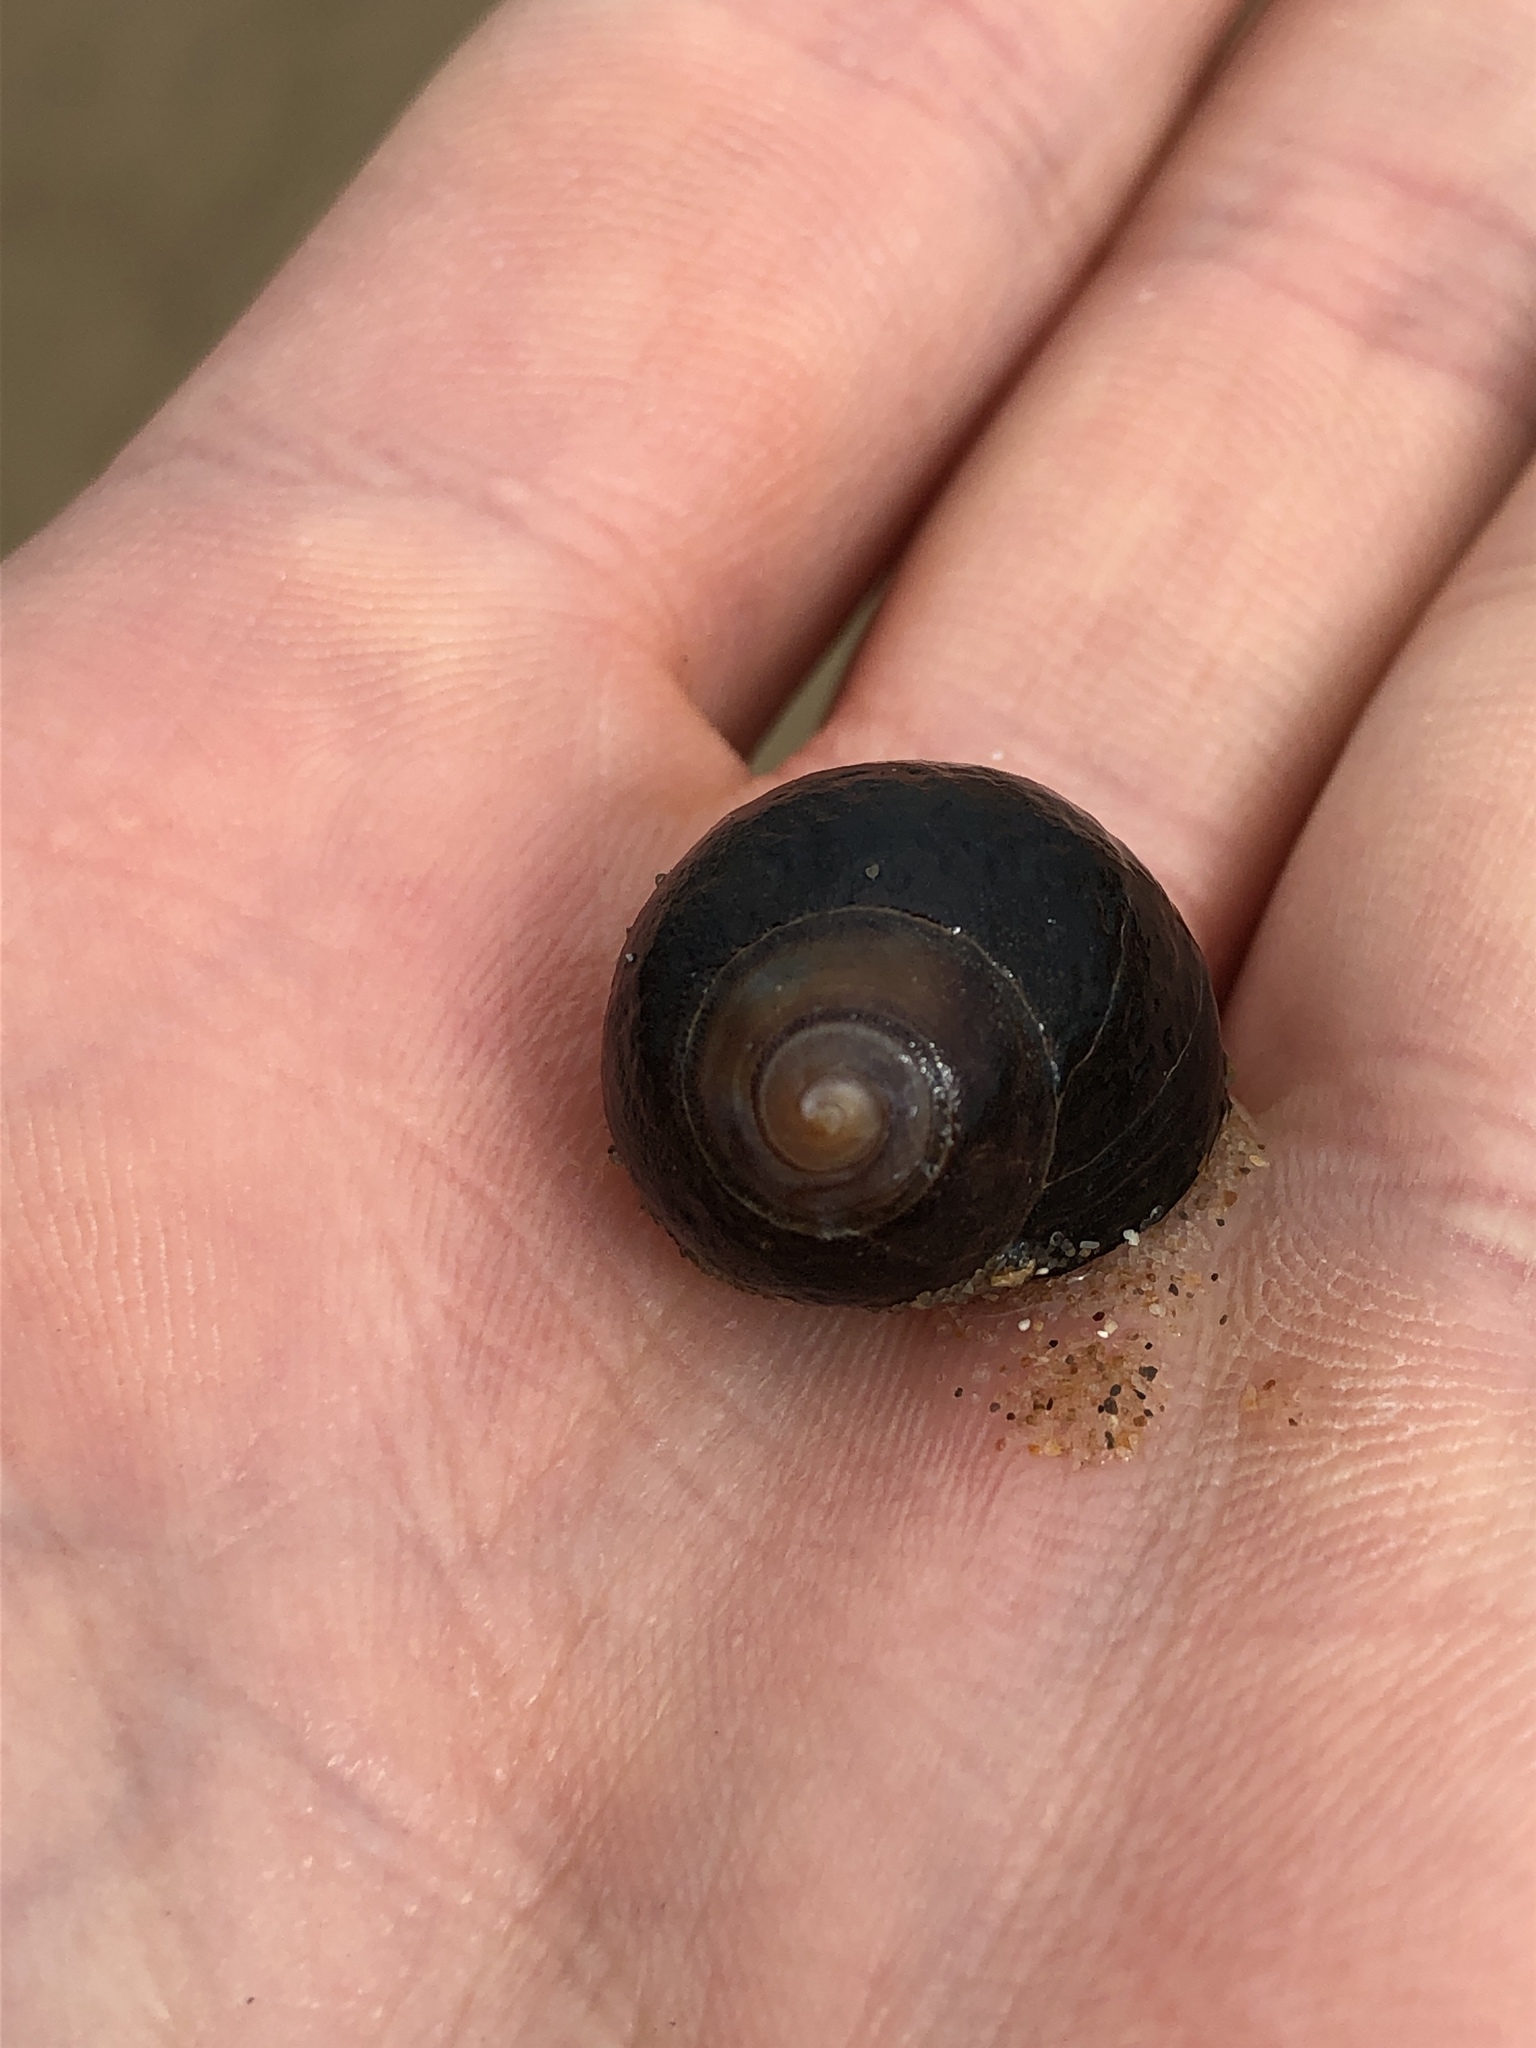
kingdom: Animalia
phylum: Mollusca
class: Gastropoda
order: Littorinimorpha
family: Littorinidae
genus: Littorina
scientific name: Littorina littorea
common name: Common periwinkle
